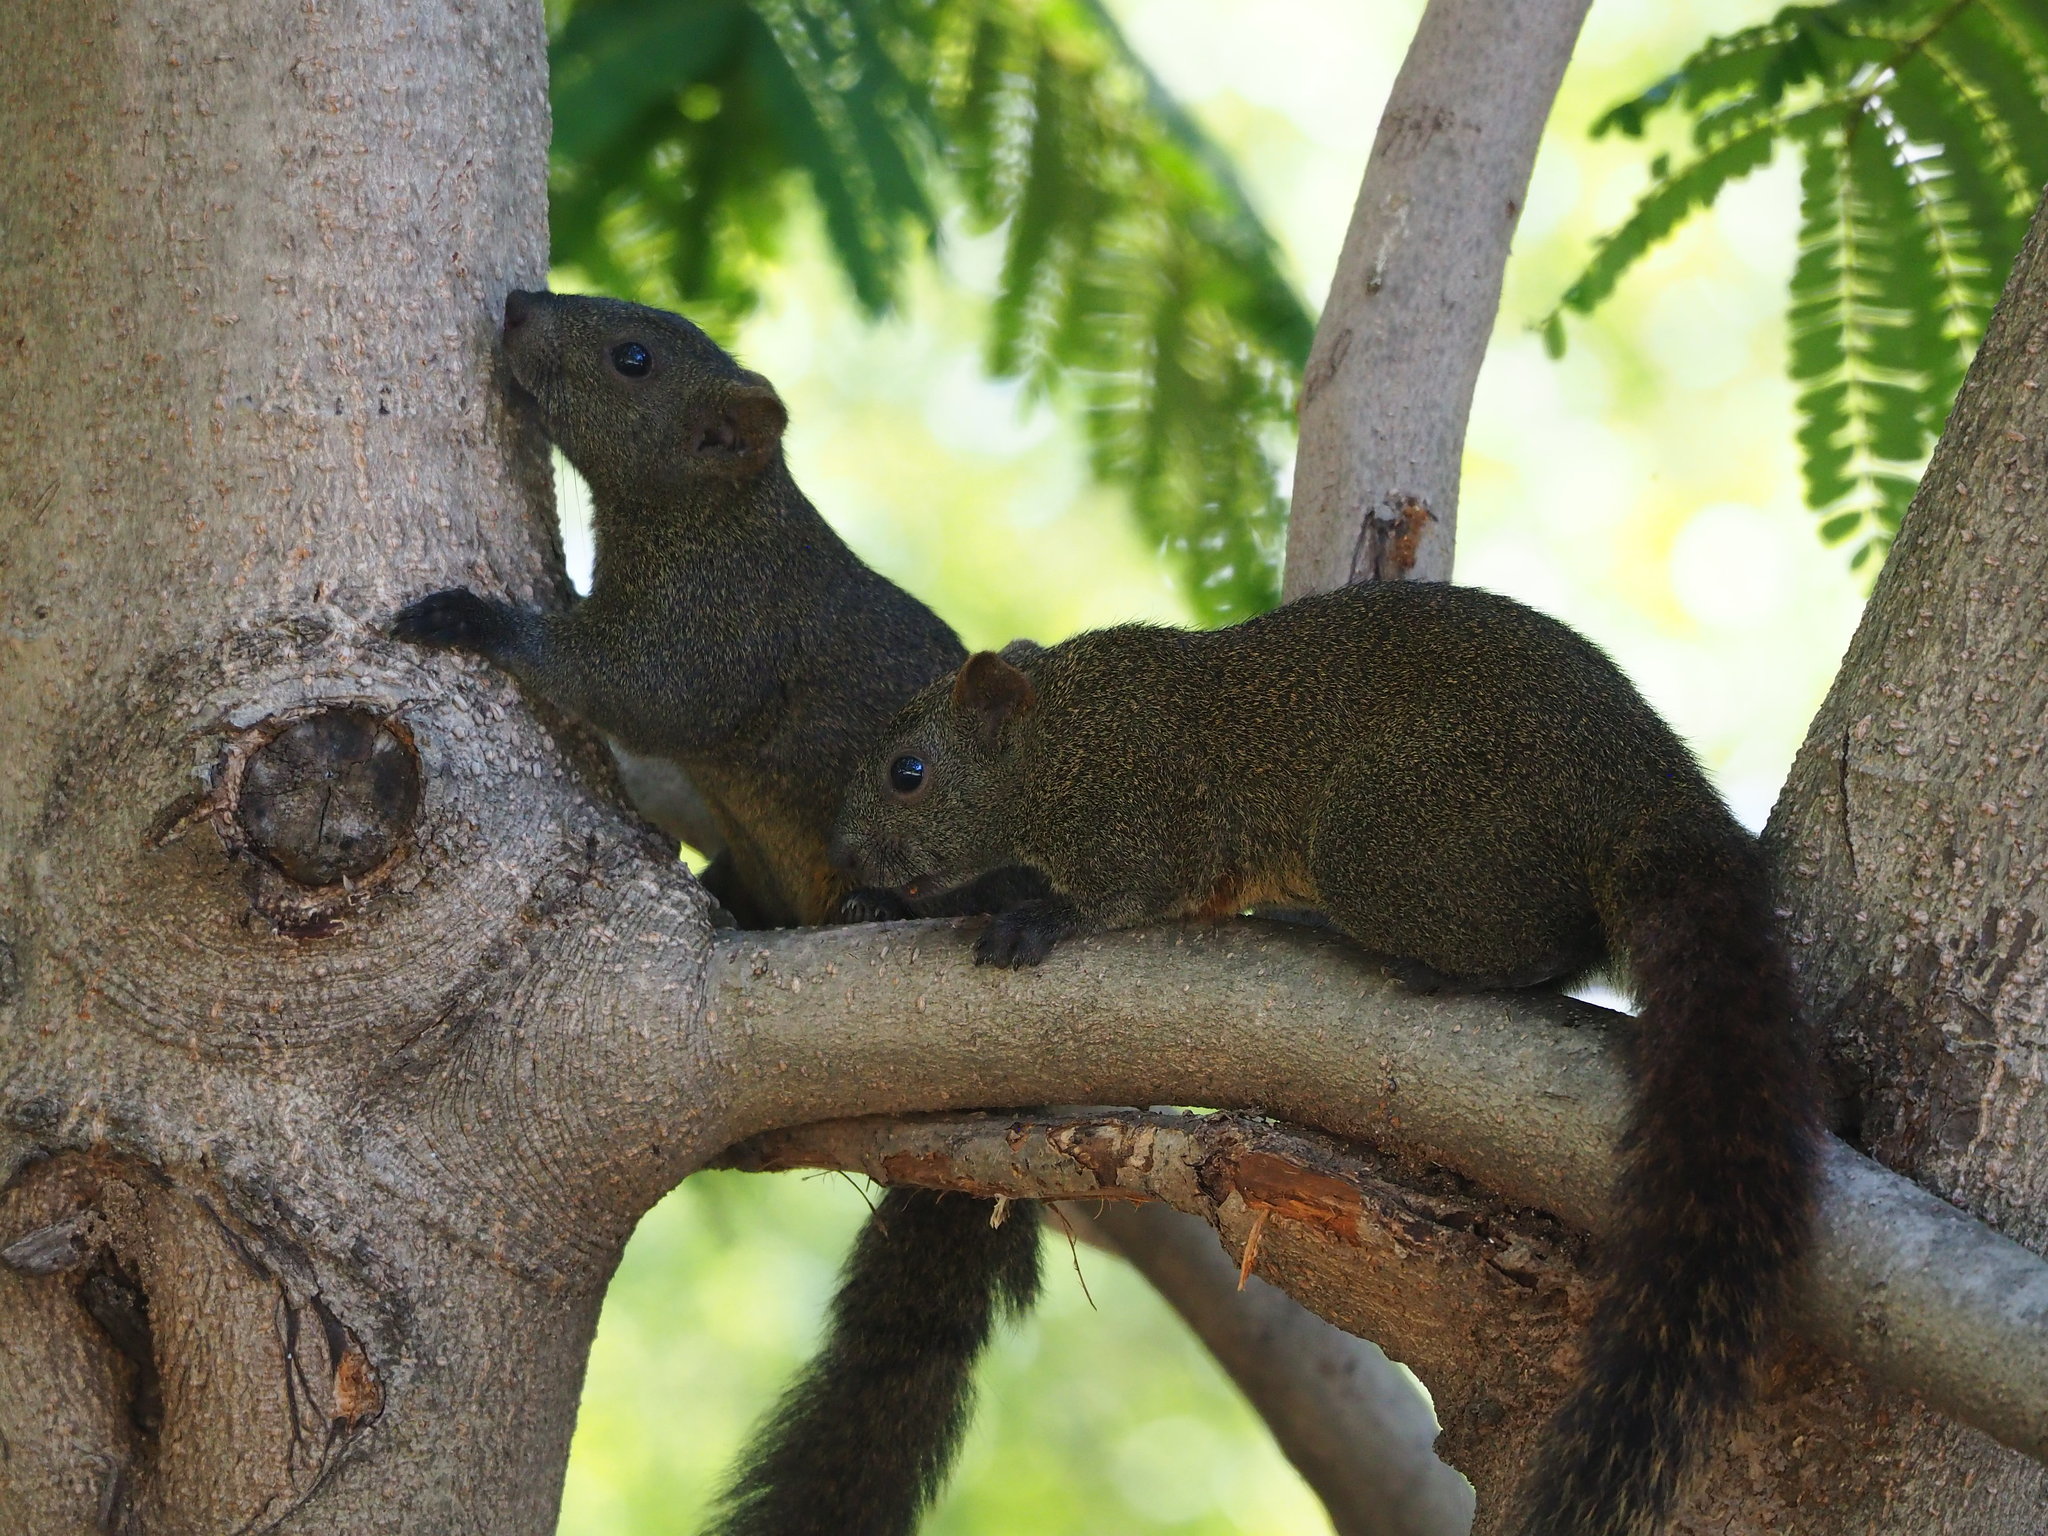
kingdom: Animalia
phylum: Chordata
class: Mammalia
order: Rodentia
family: Sciuridae
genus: Callosciurus
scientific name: Callosciurus erythraeus
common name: Pallas's squirrel
